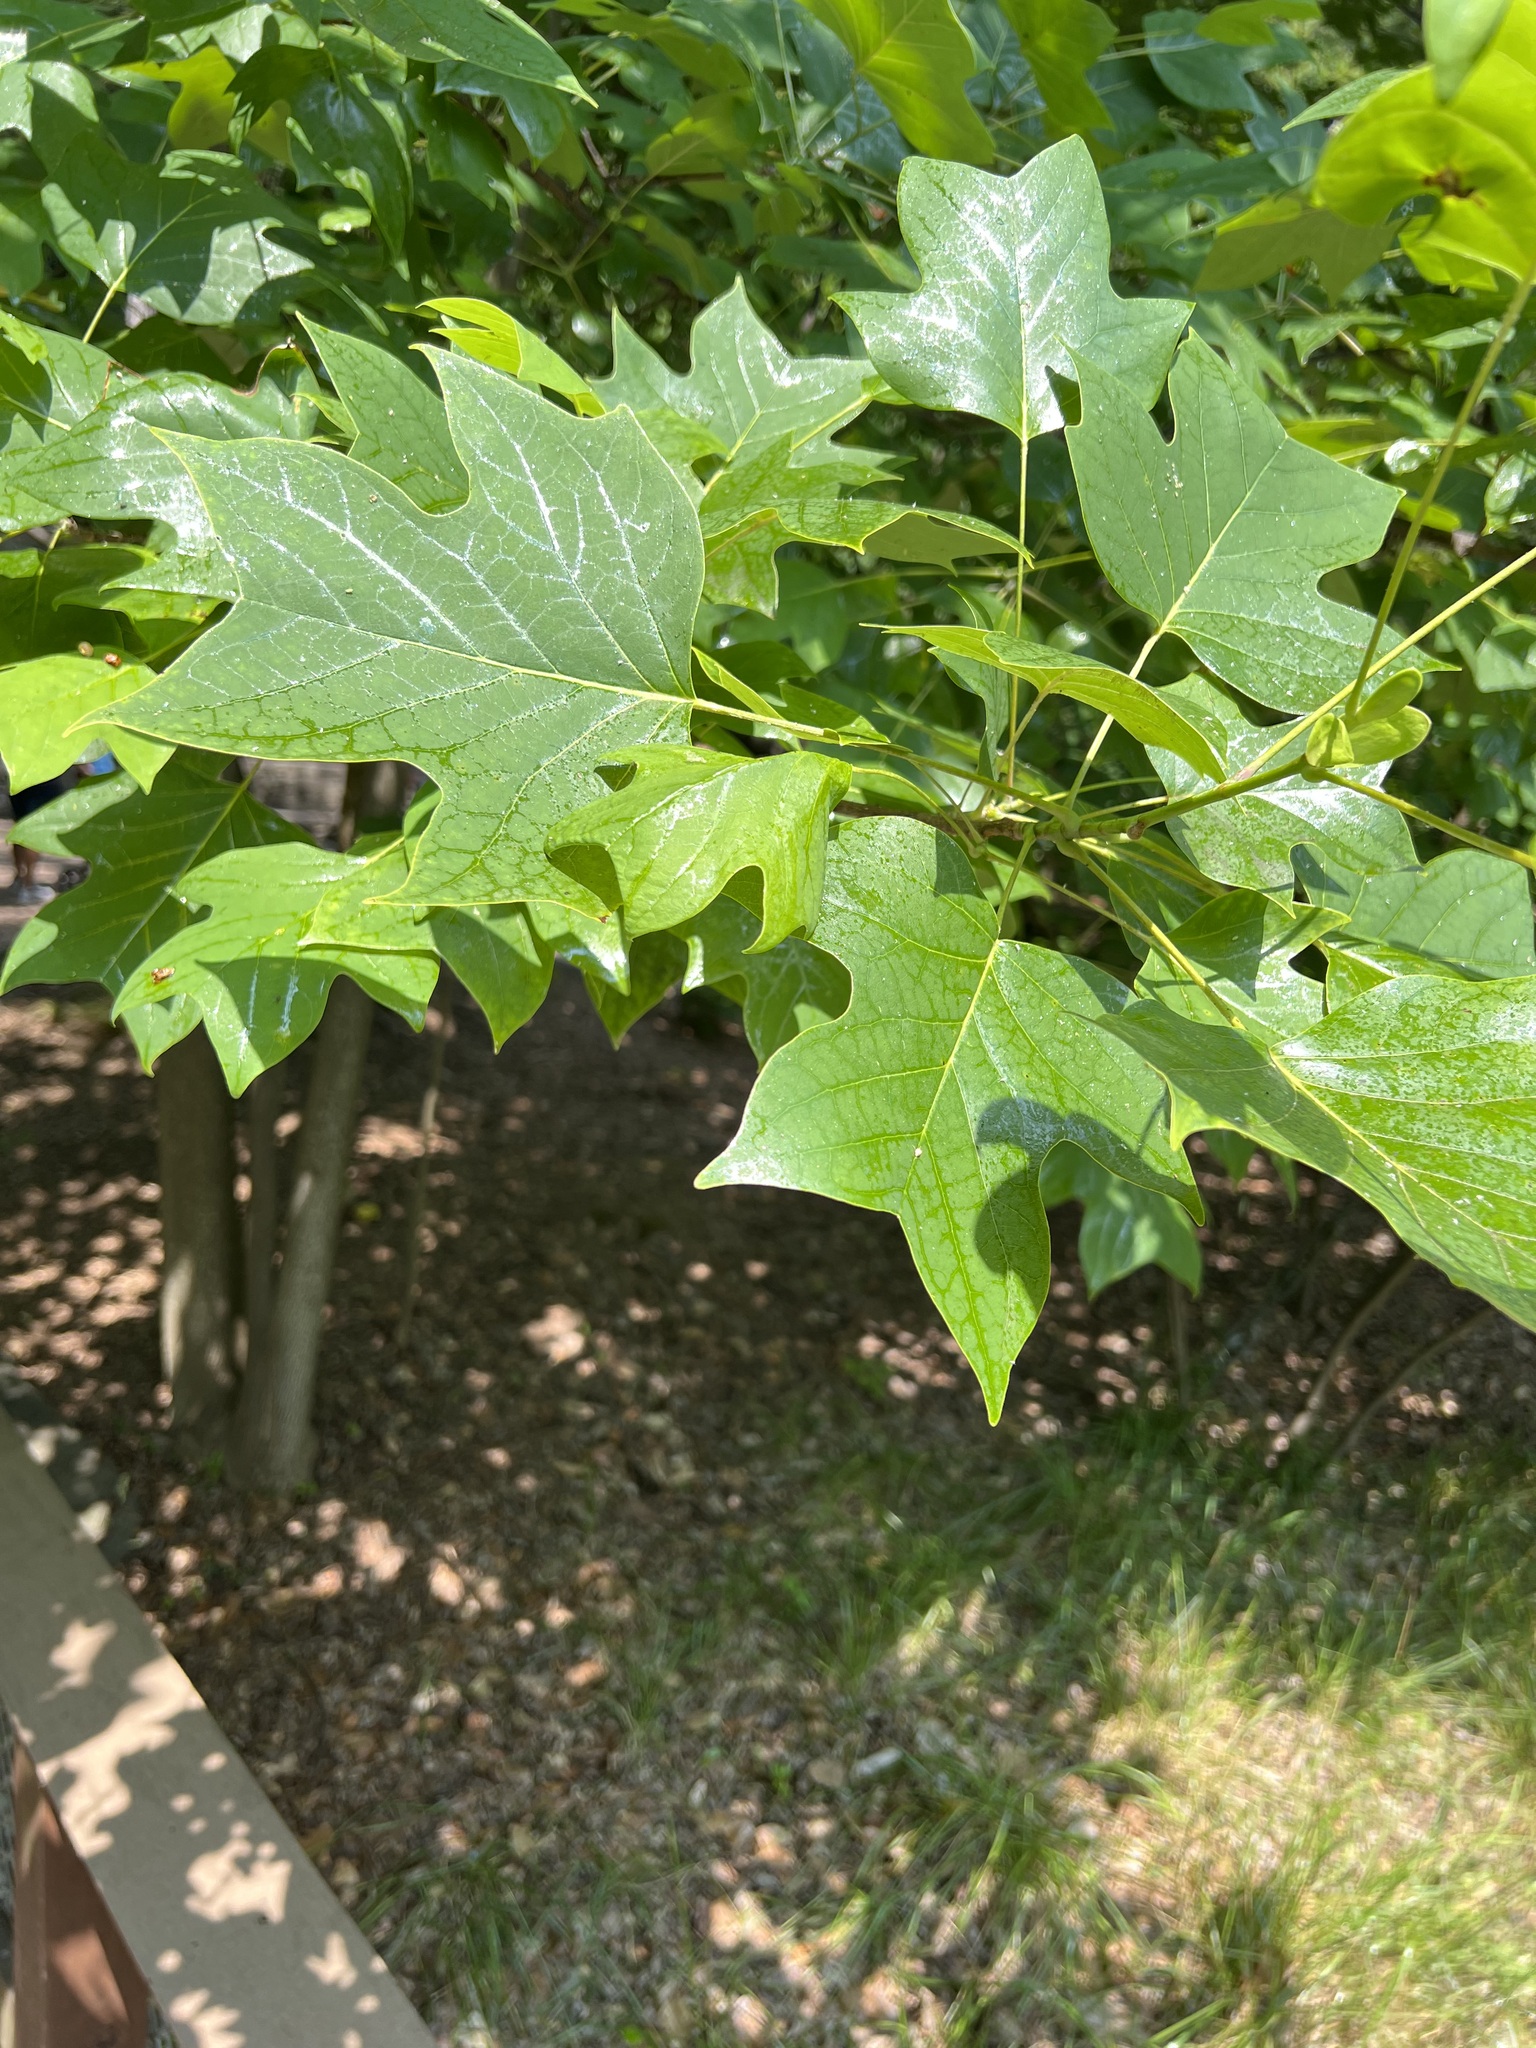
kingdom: Plantae
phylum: Tracheophyta
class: Magnoliopsida
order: Magnoliales
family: Magnoliaceae
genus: Liriodendron
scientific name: Liriodendron tulipifera
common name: Tulip tree
